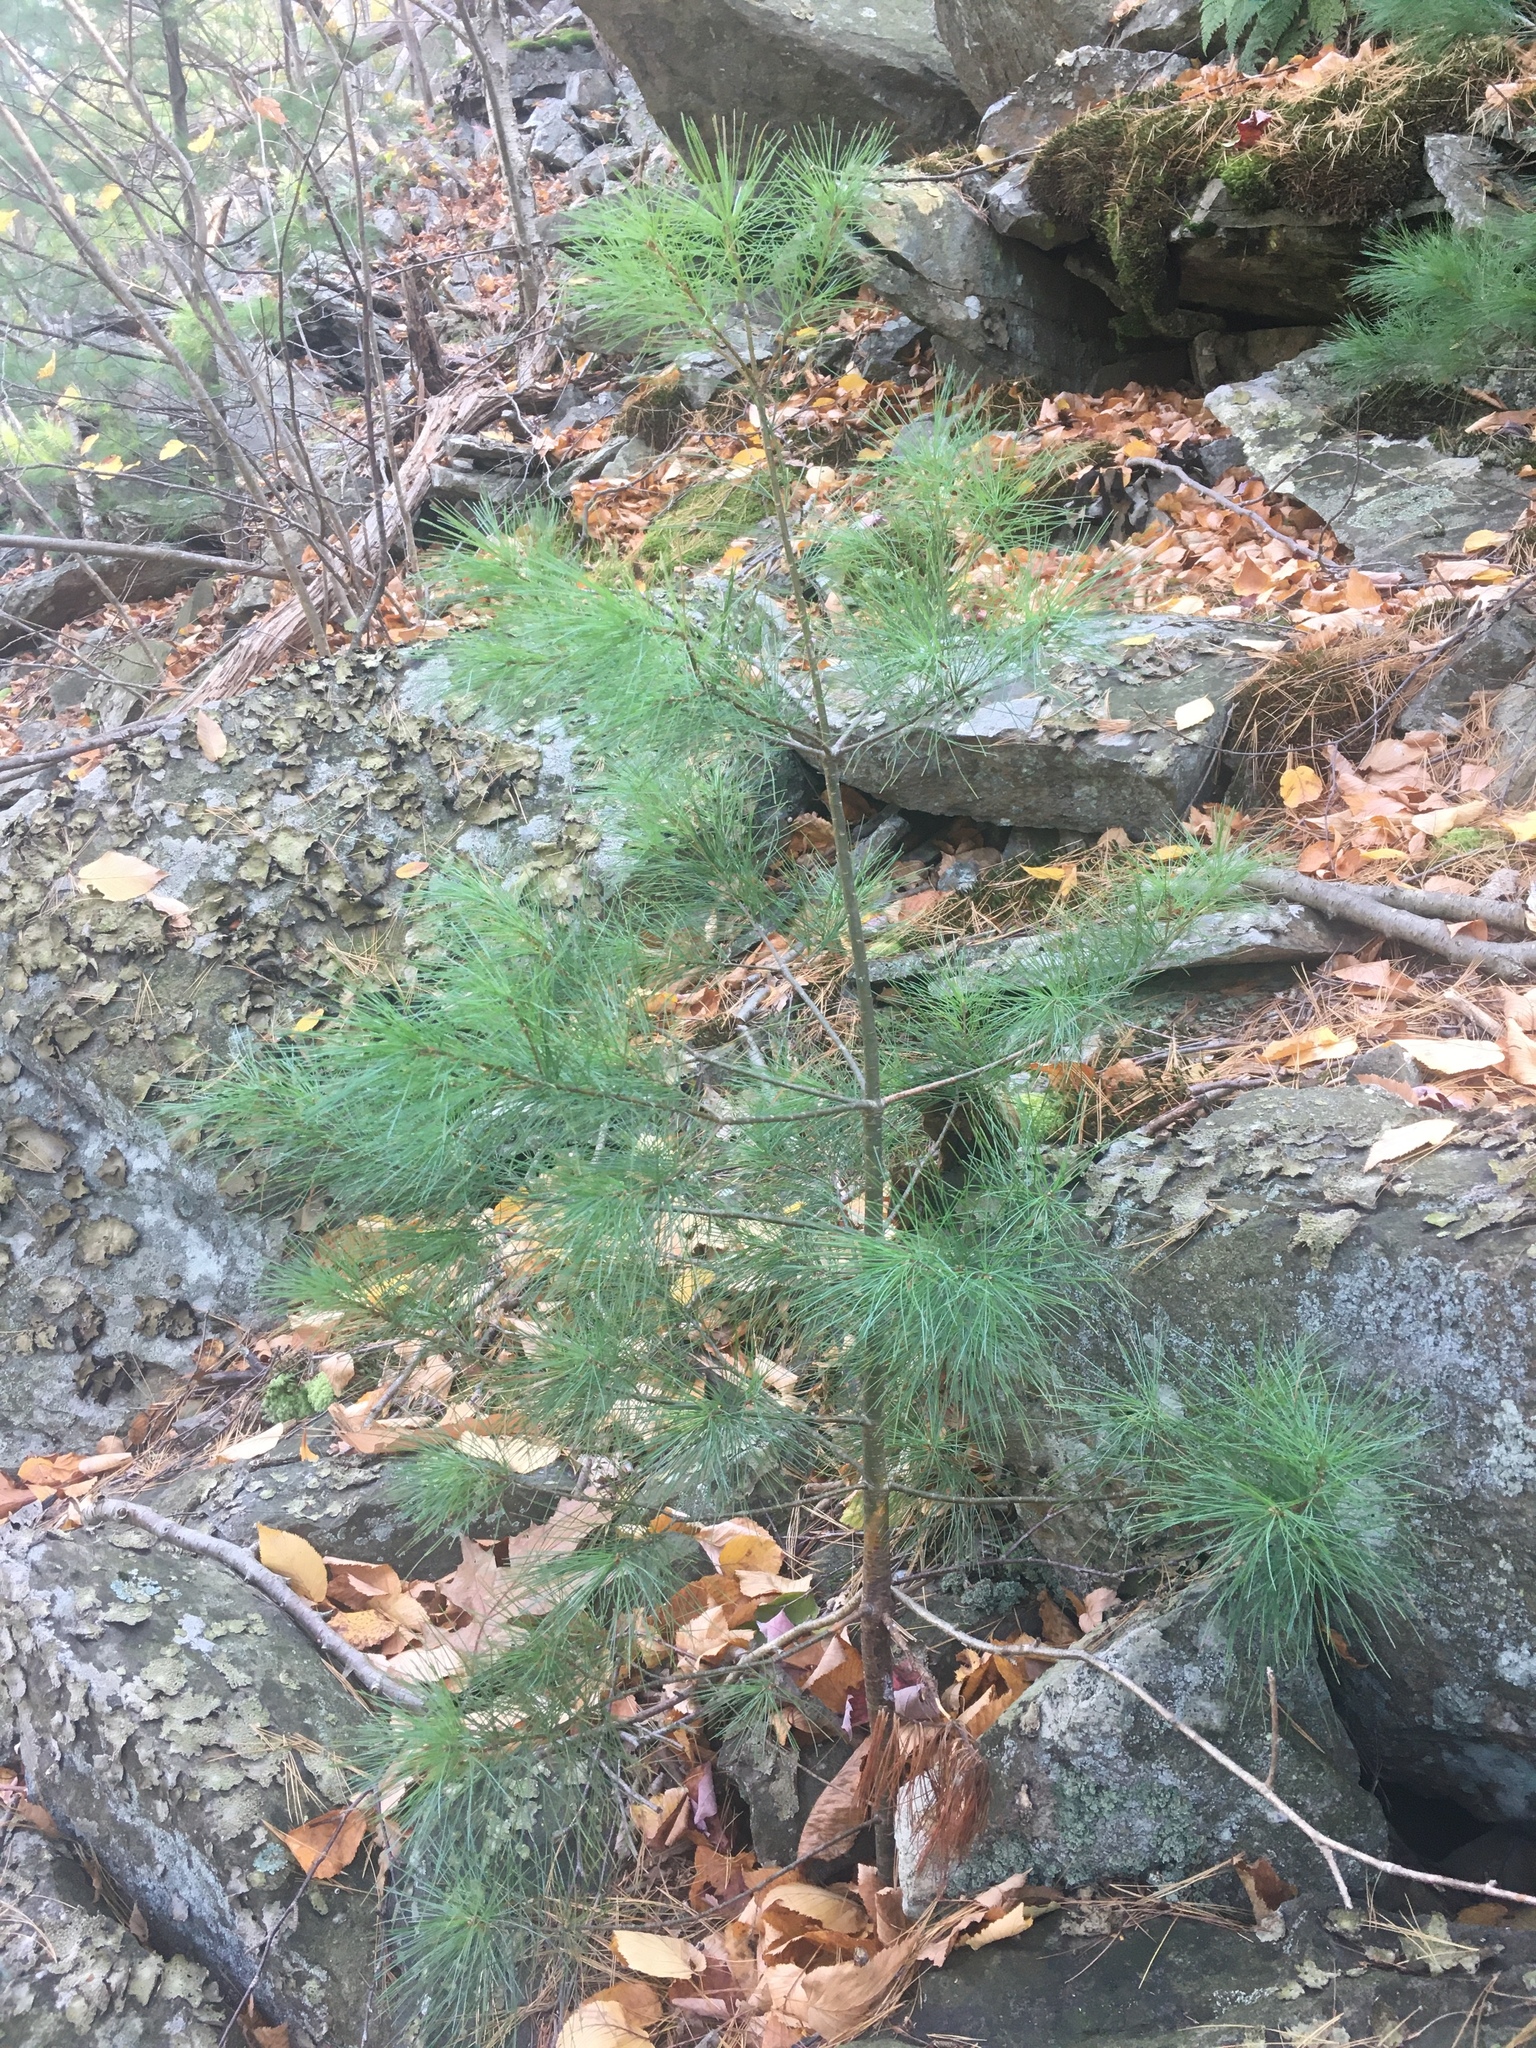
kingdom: Plantae
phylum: Tracheophyta
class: Pinopsida
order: Pinales
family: Pinaceae
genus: Pinus
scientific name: Pinus strobus
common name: Weymouth pine
